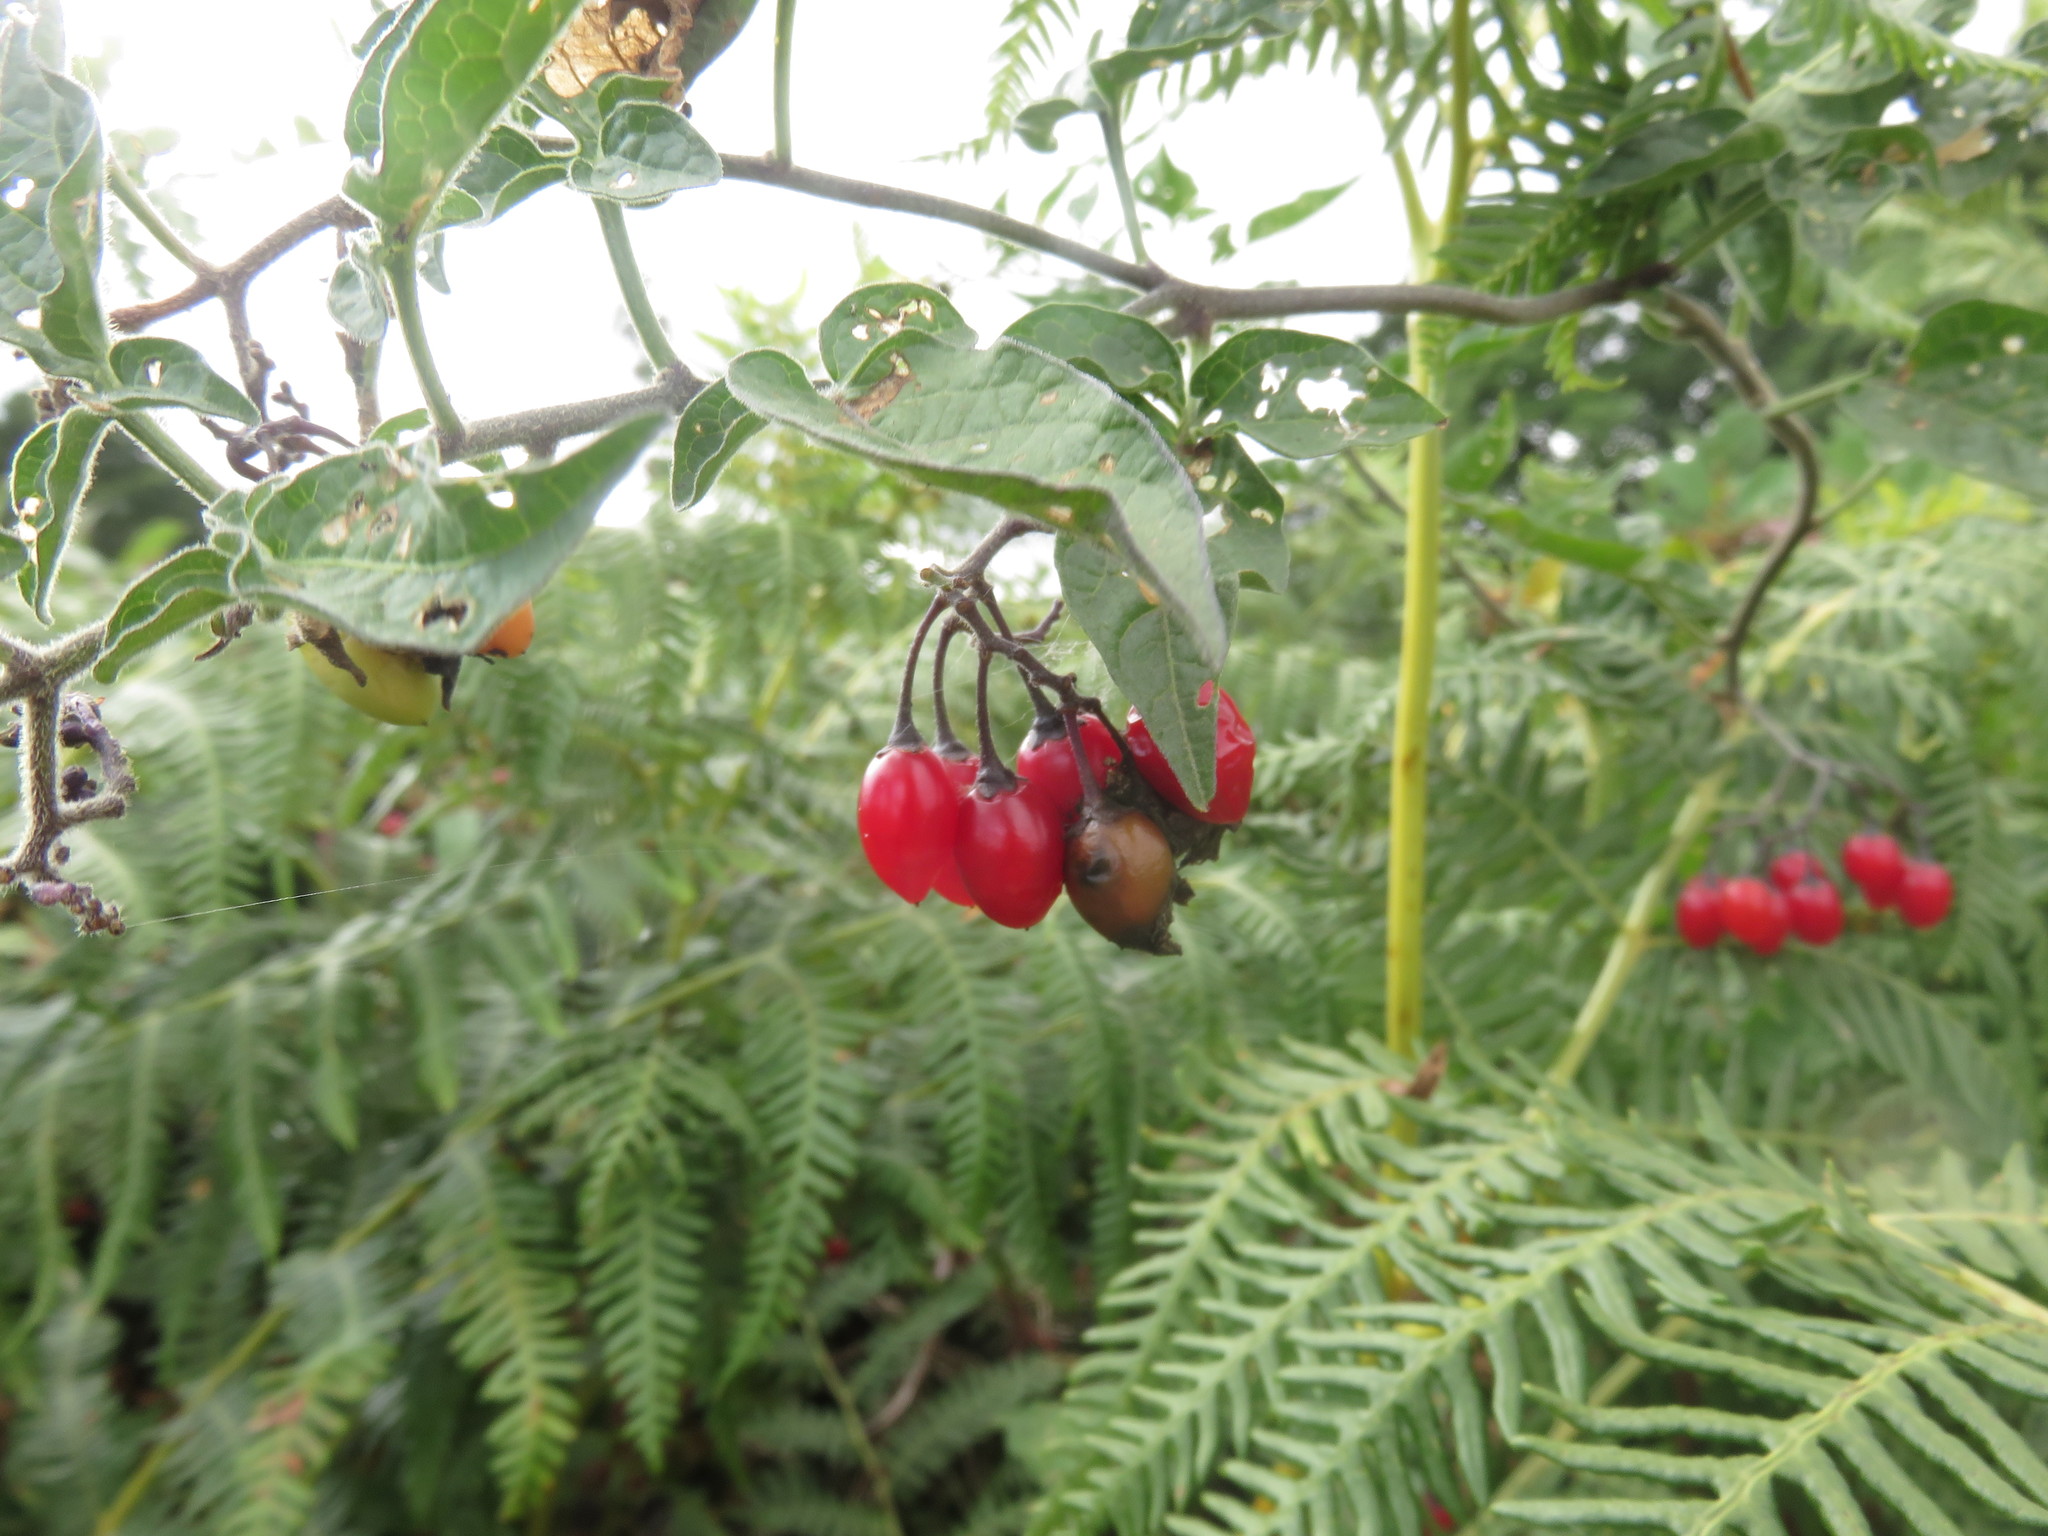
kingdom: Plantae
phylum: Tracheophyta
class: Magnoliopsida
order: Solanales
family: Solanaceae
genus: Solanum
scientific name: Solanum dulcamara
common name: Climbing nightshade
